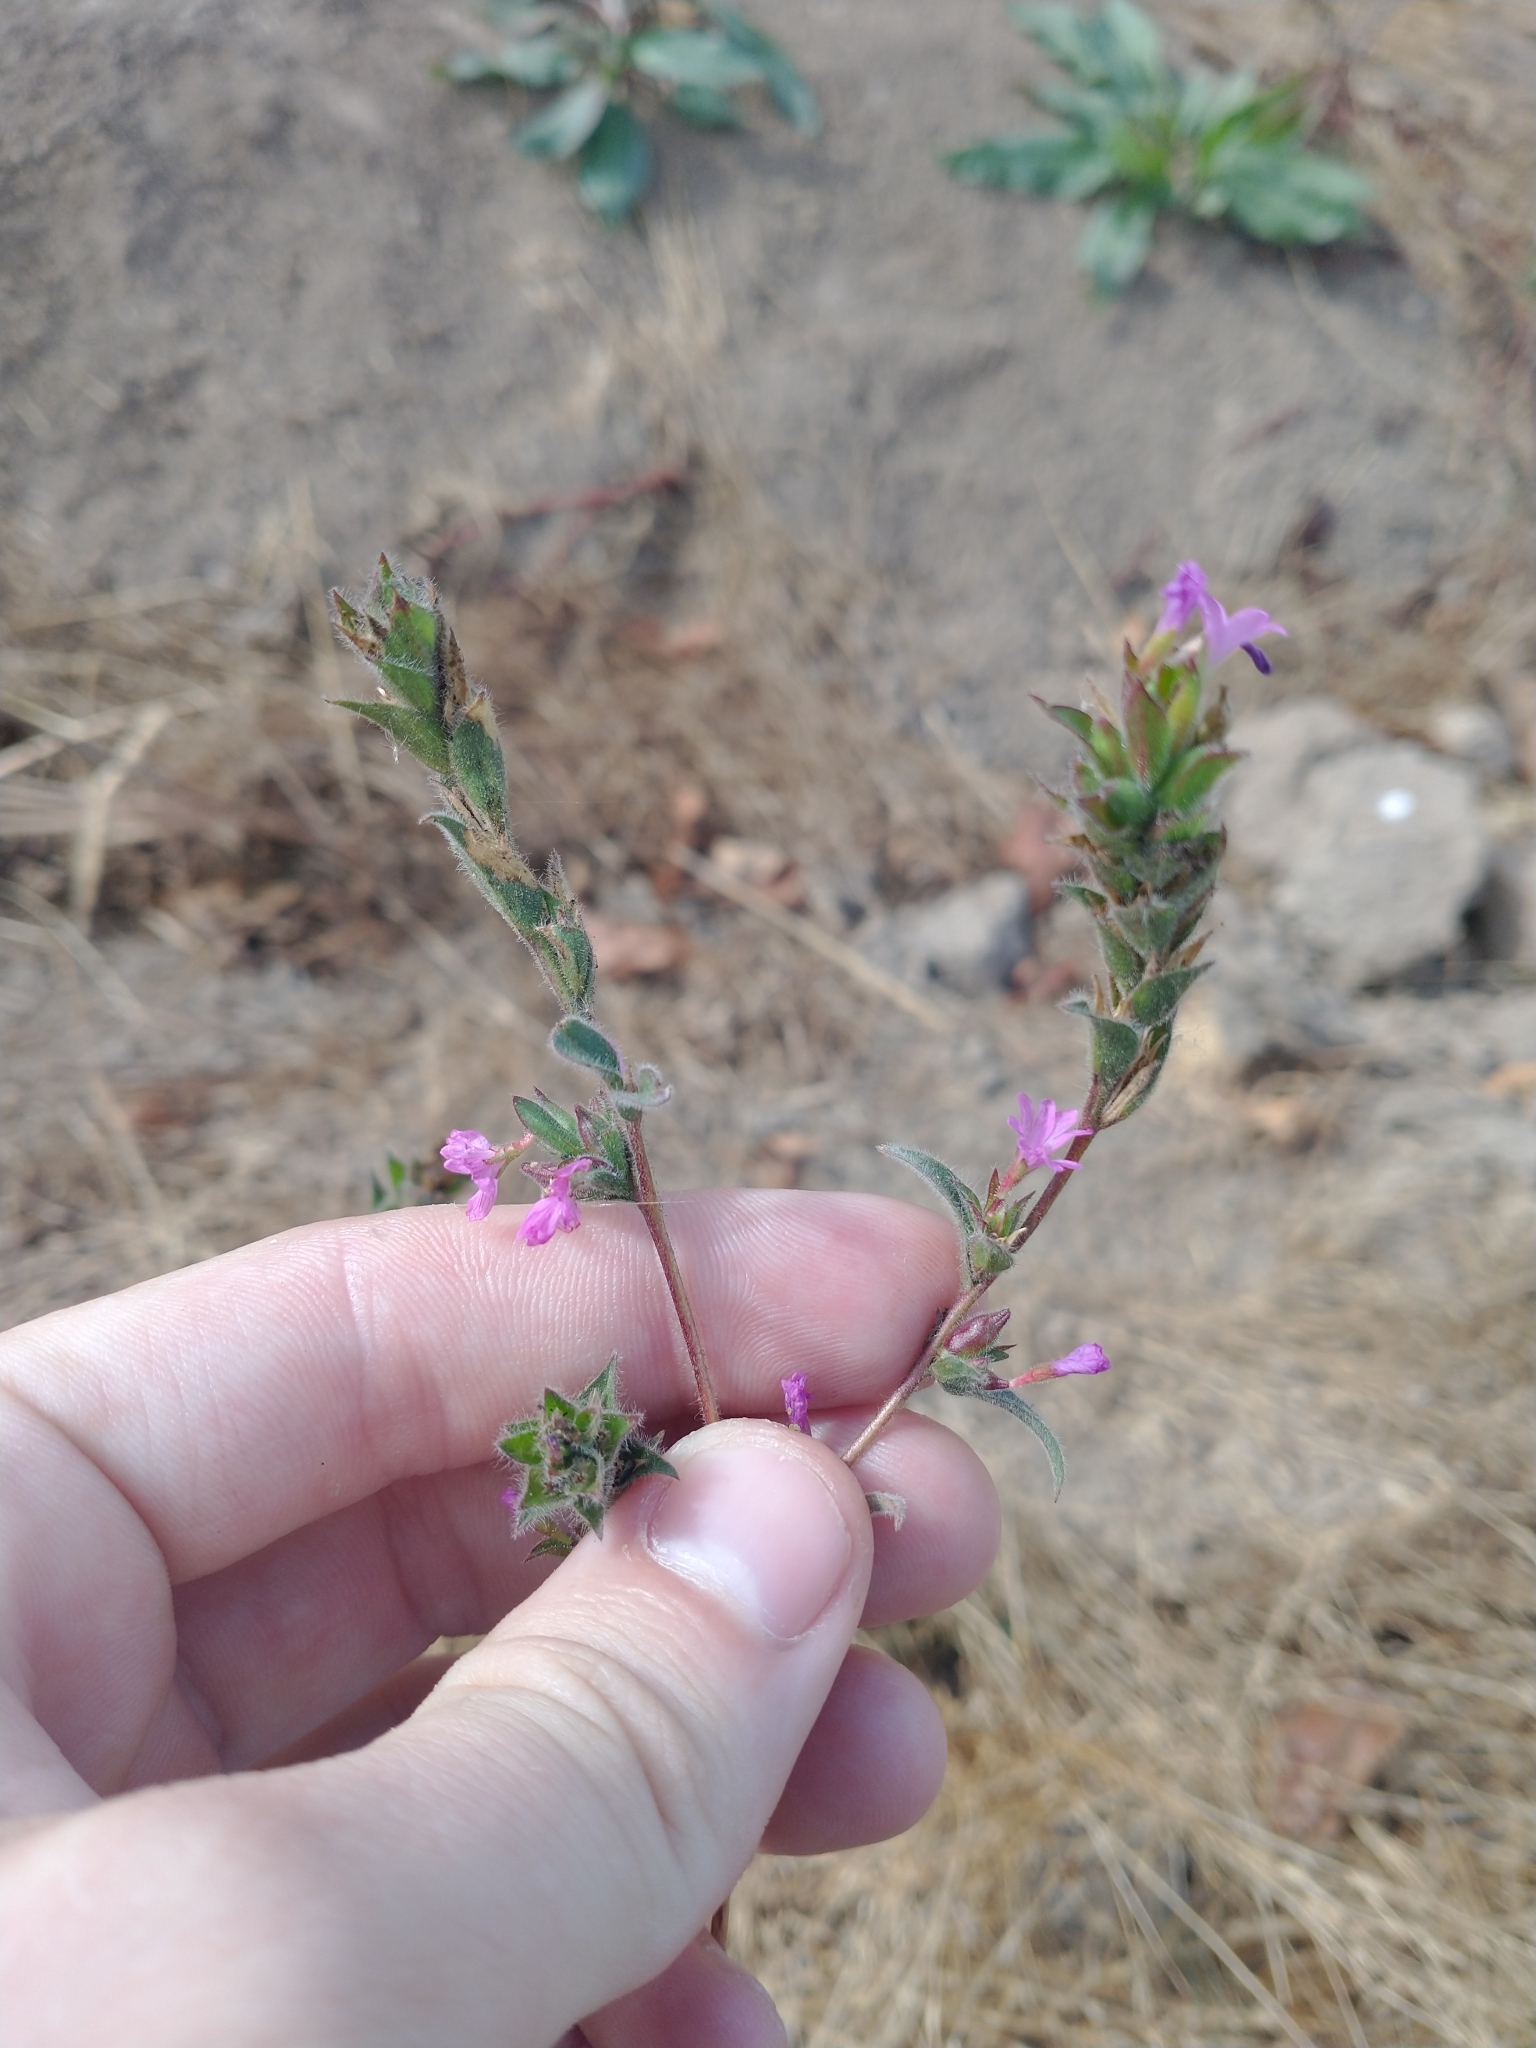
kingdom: Plantae
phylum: Tracheophyta
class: Magnoliopsida
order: Myrtales
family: Onagraceae
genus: Epilobium
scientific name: Epilobium densiflorum
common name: Dense spike-primrose
